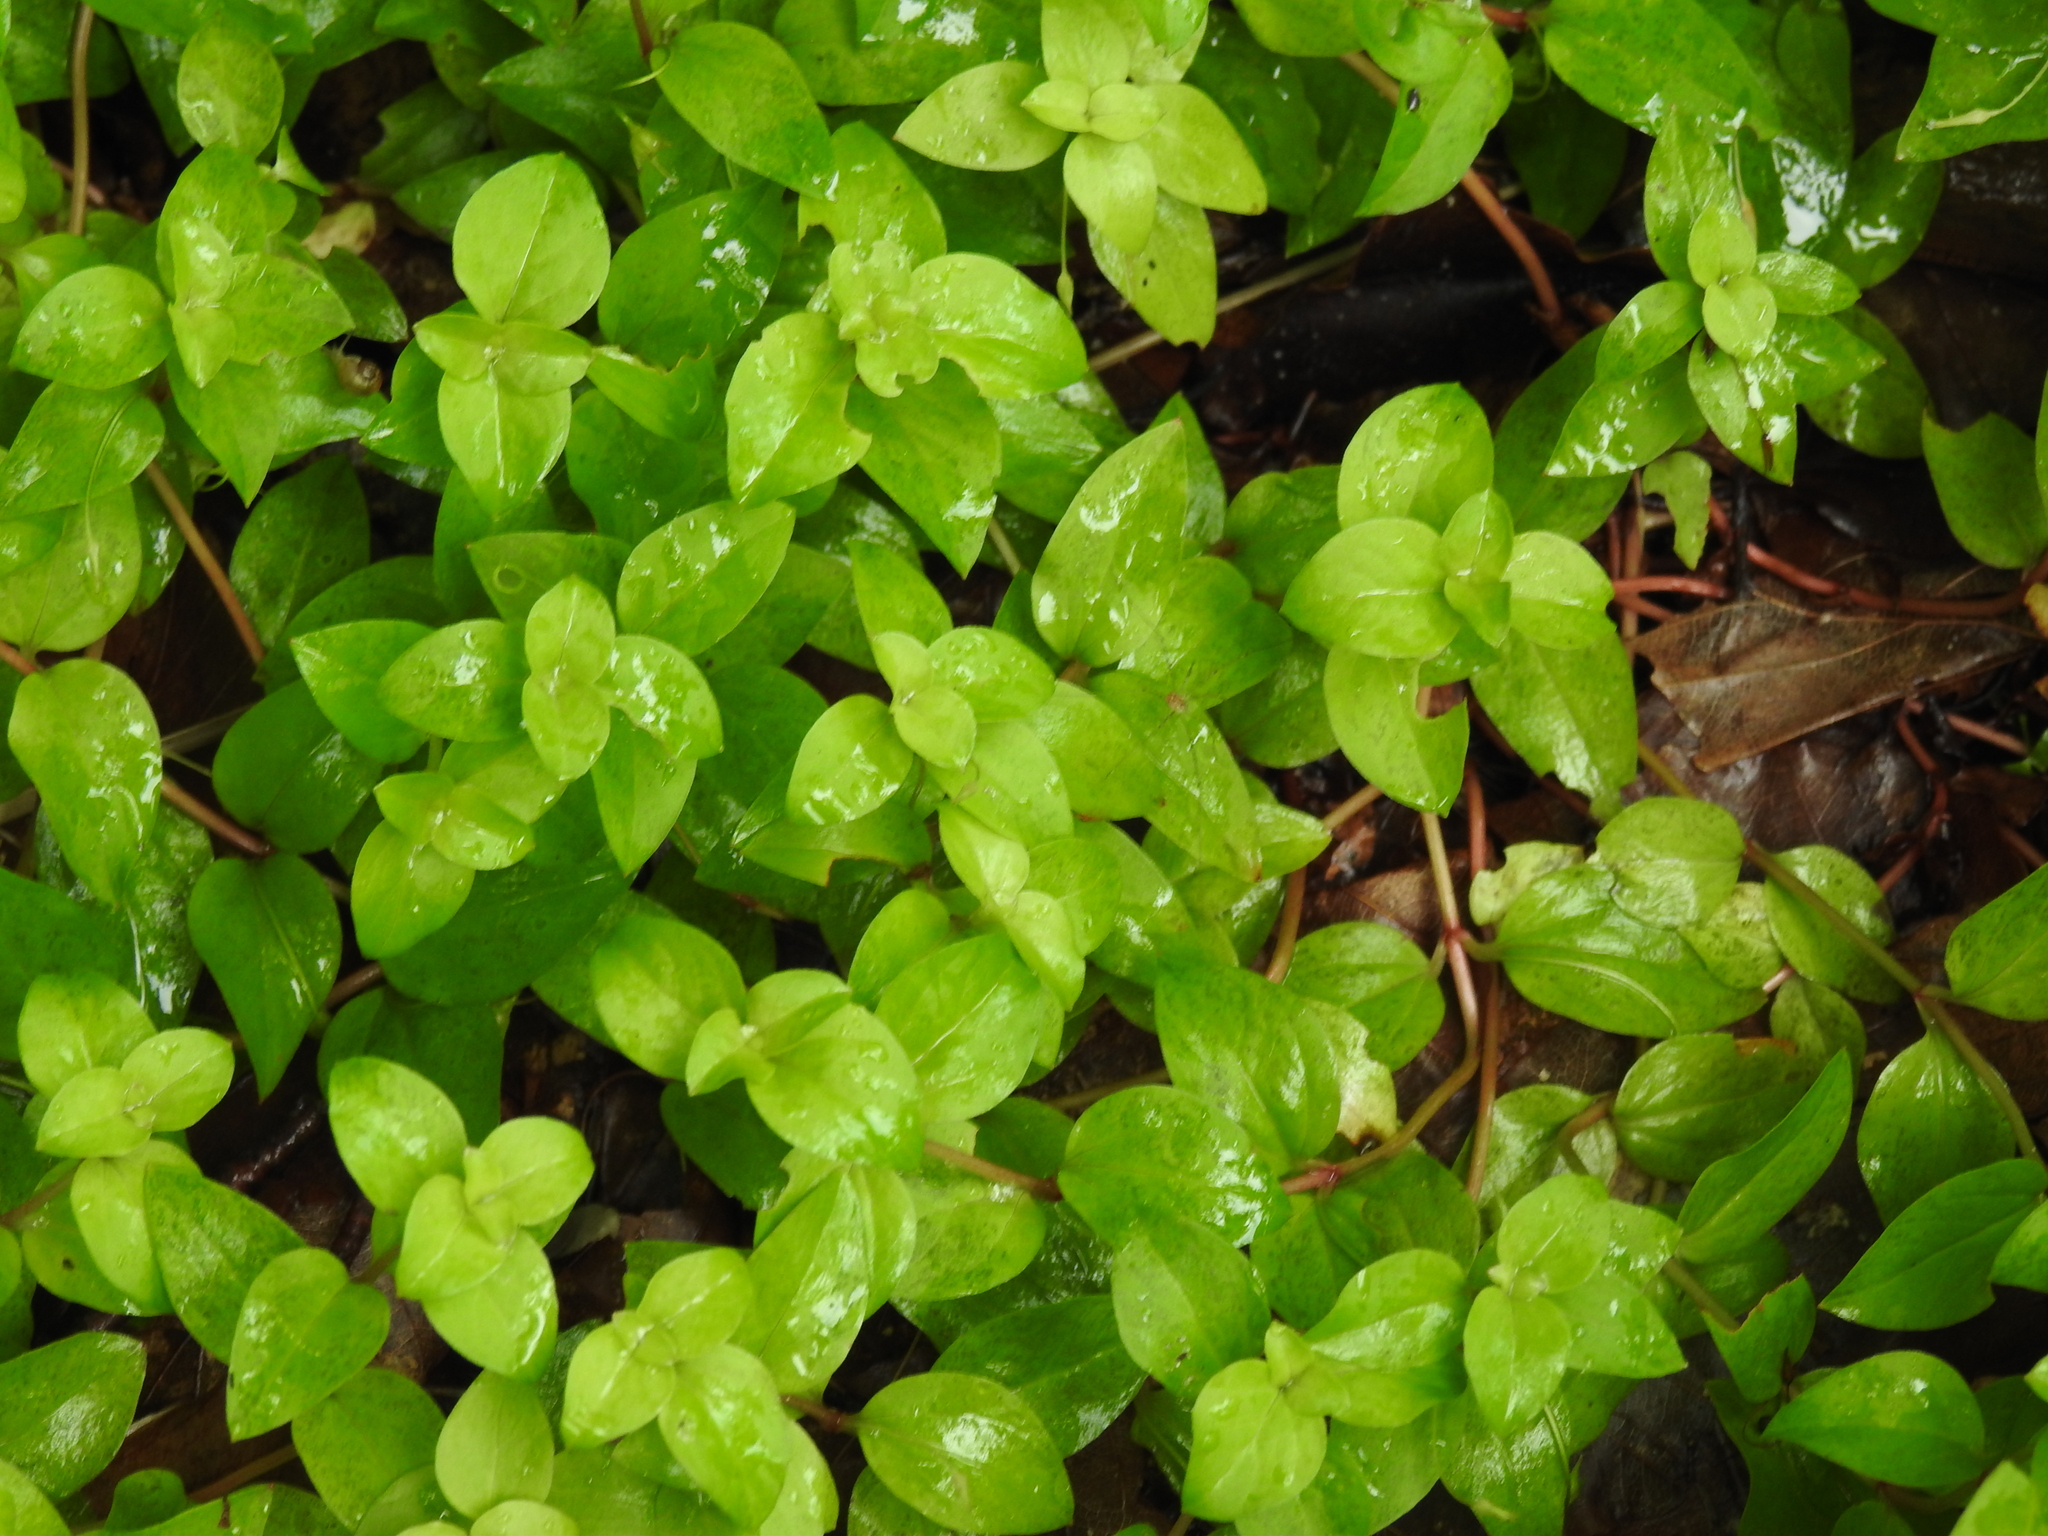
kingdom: Plantae
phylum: Tracheophyta
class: Magnoliopsida
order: Ericales
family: Primulaceae
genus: Lysimachia
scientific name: Lysimachia nemorum
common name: Yellow pimpernel
